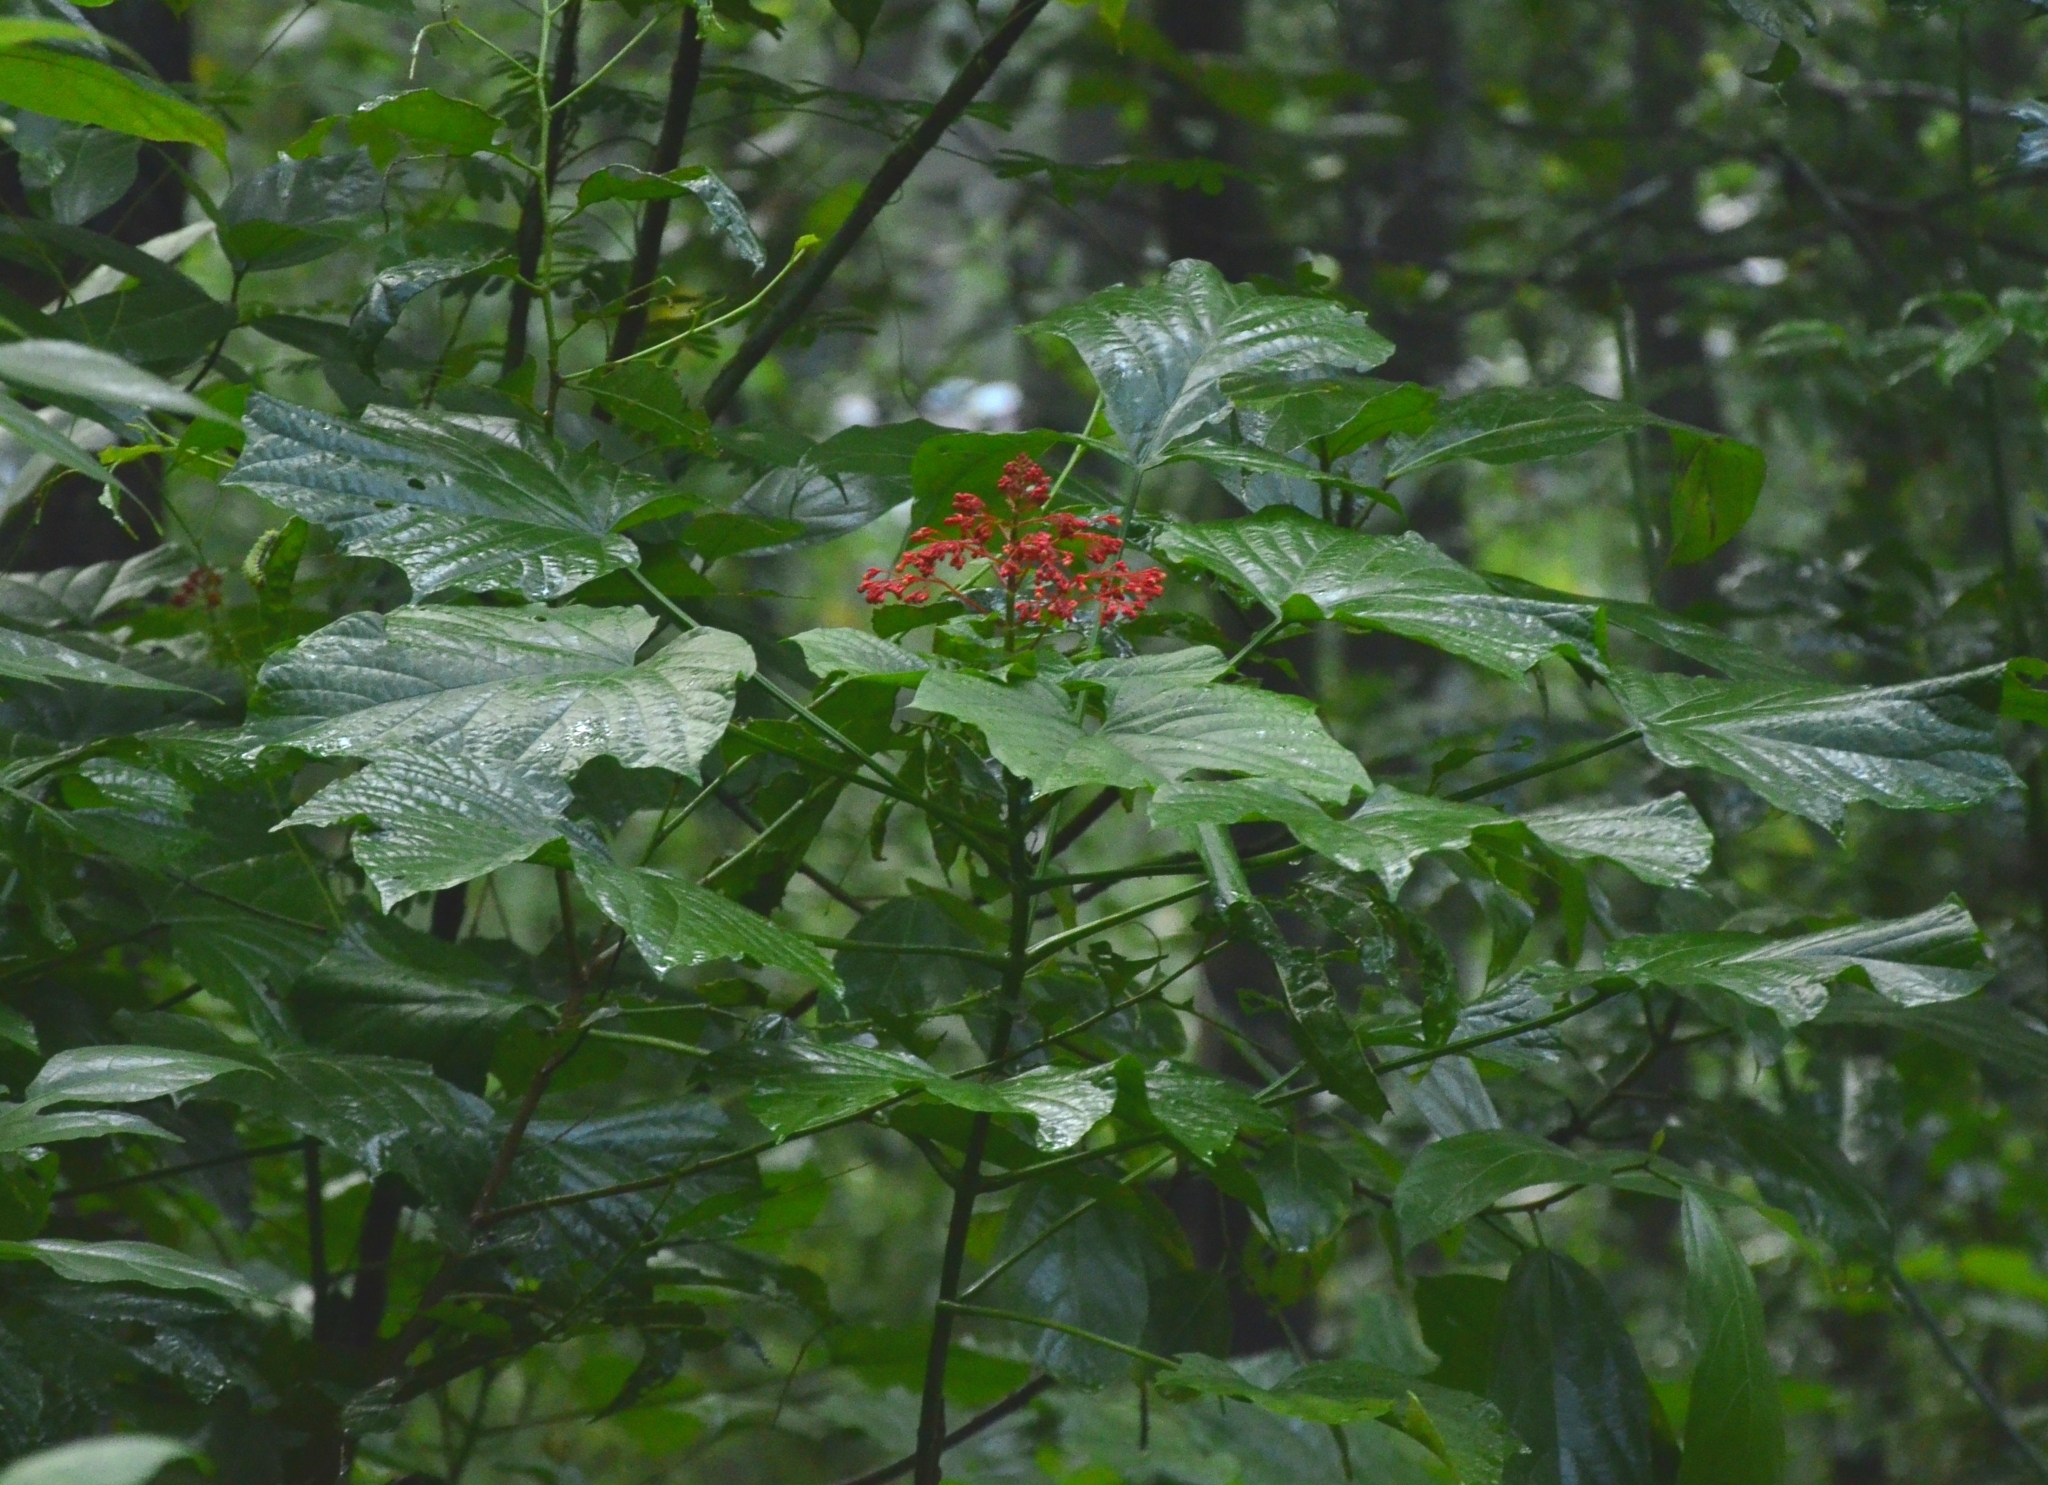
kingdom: Plantae
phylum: Tracheophyta
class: Magnoliopsida
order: Lamiales
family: Lamiaceae
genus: Clerodendrum
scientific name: Clerodendrum paniculatum
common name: Pagoda-flower
